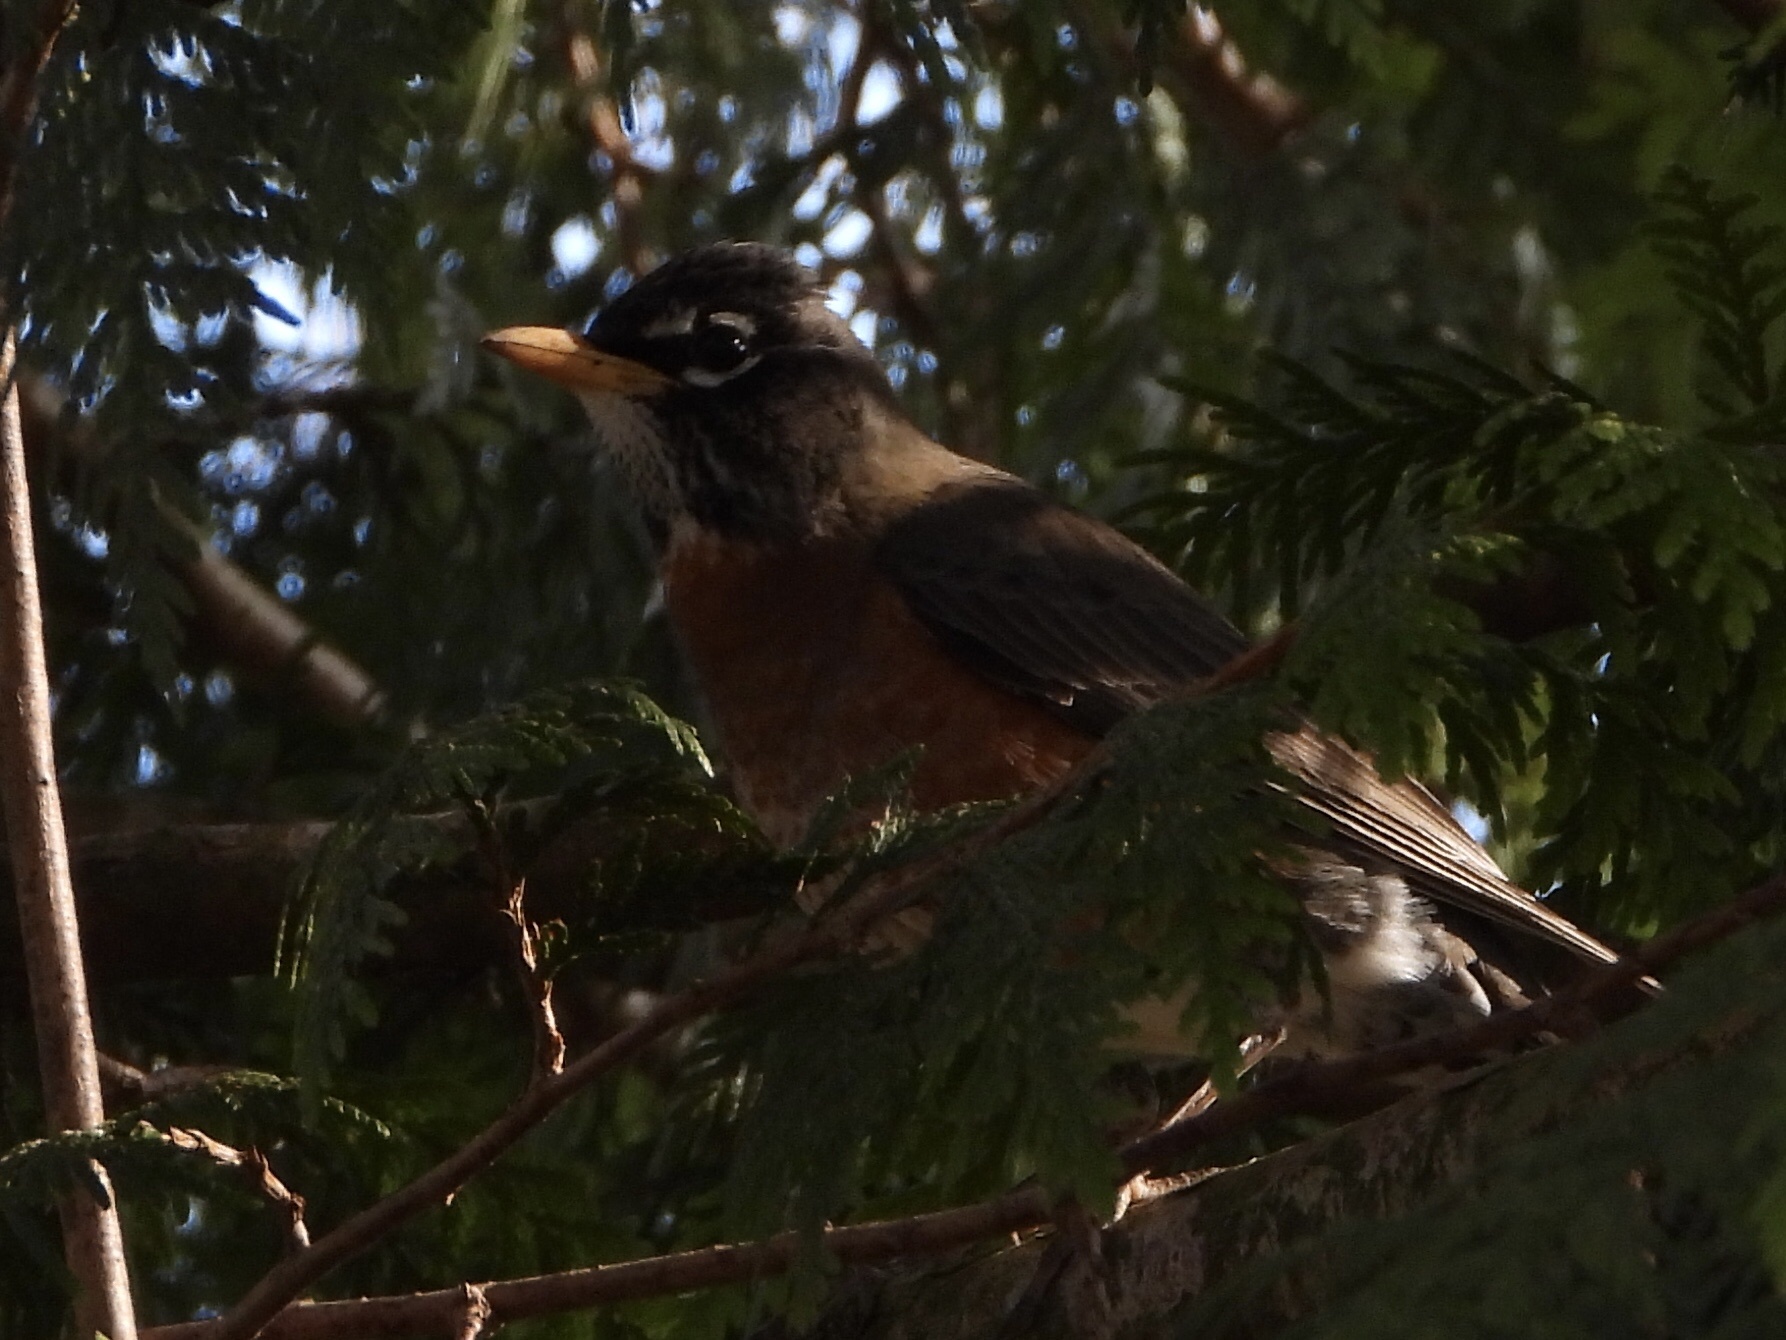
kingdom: Animalia
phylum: Chordata
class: Aves
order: Passeriformes
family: Turdidae
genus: Turdus
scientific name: Turdus migratorius
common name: American robin
